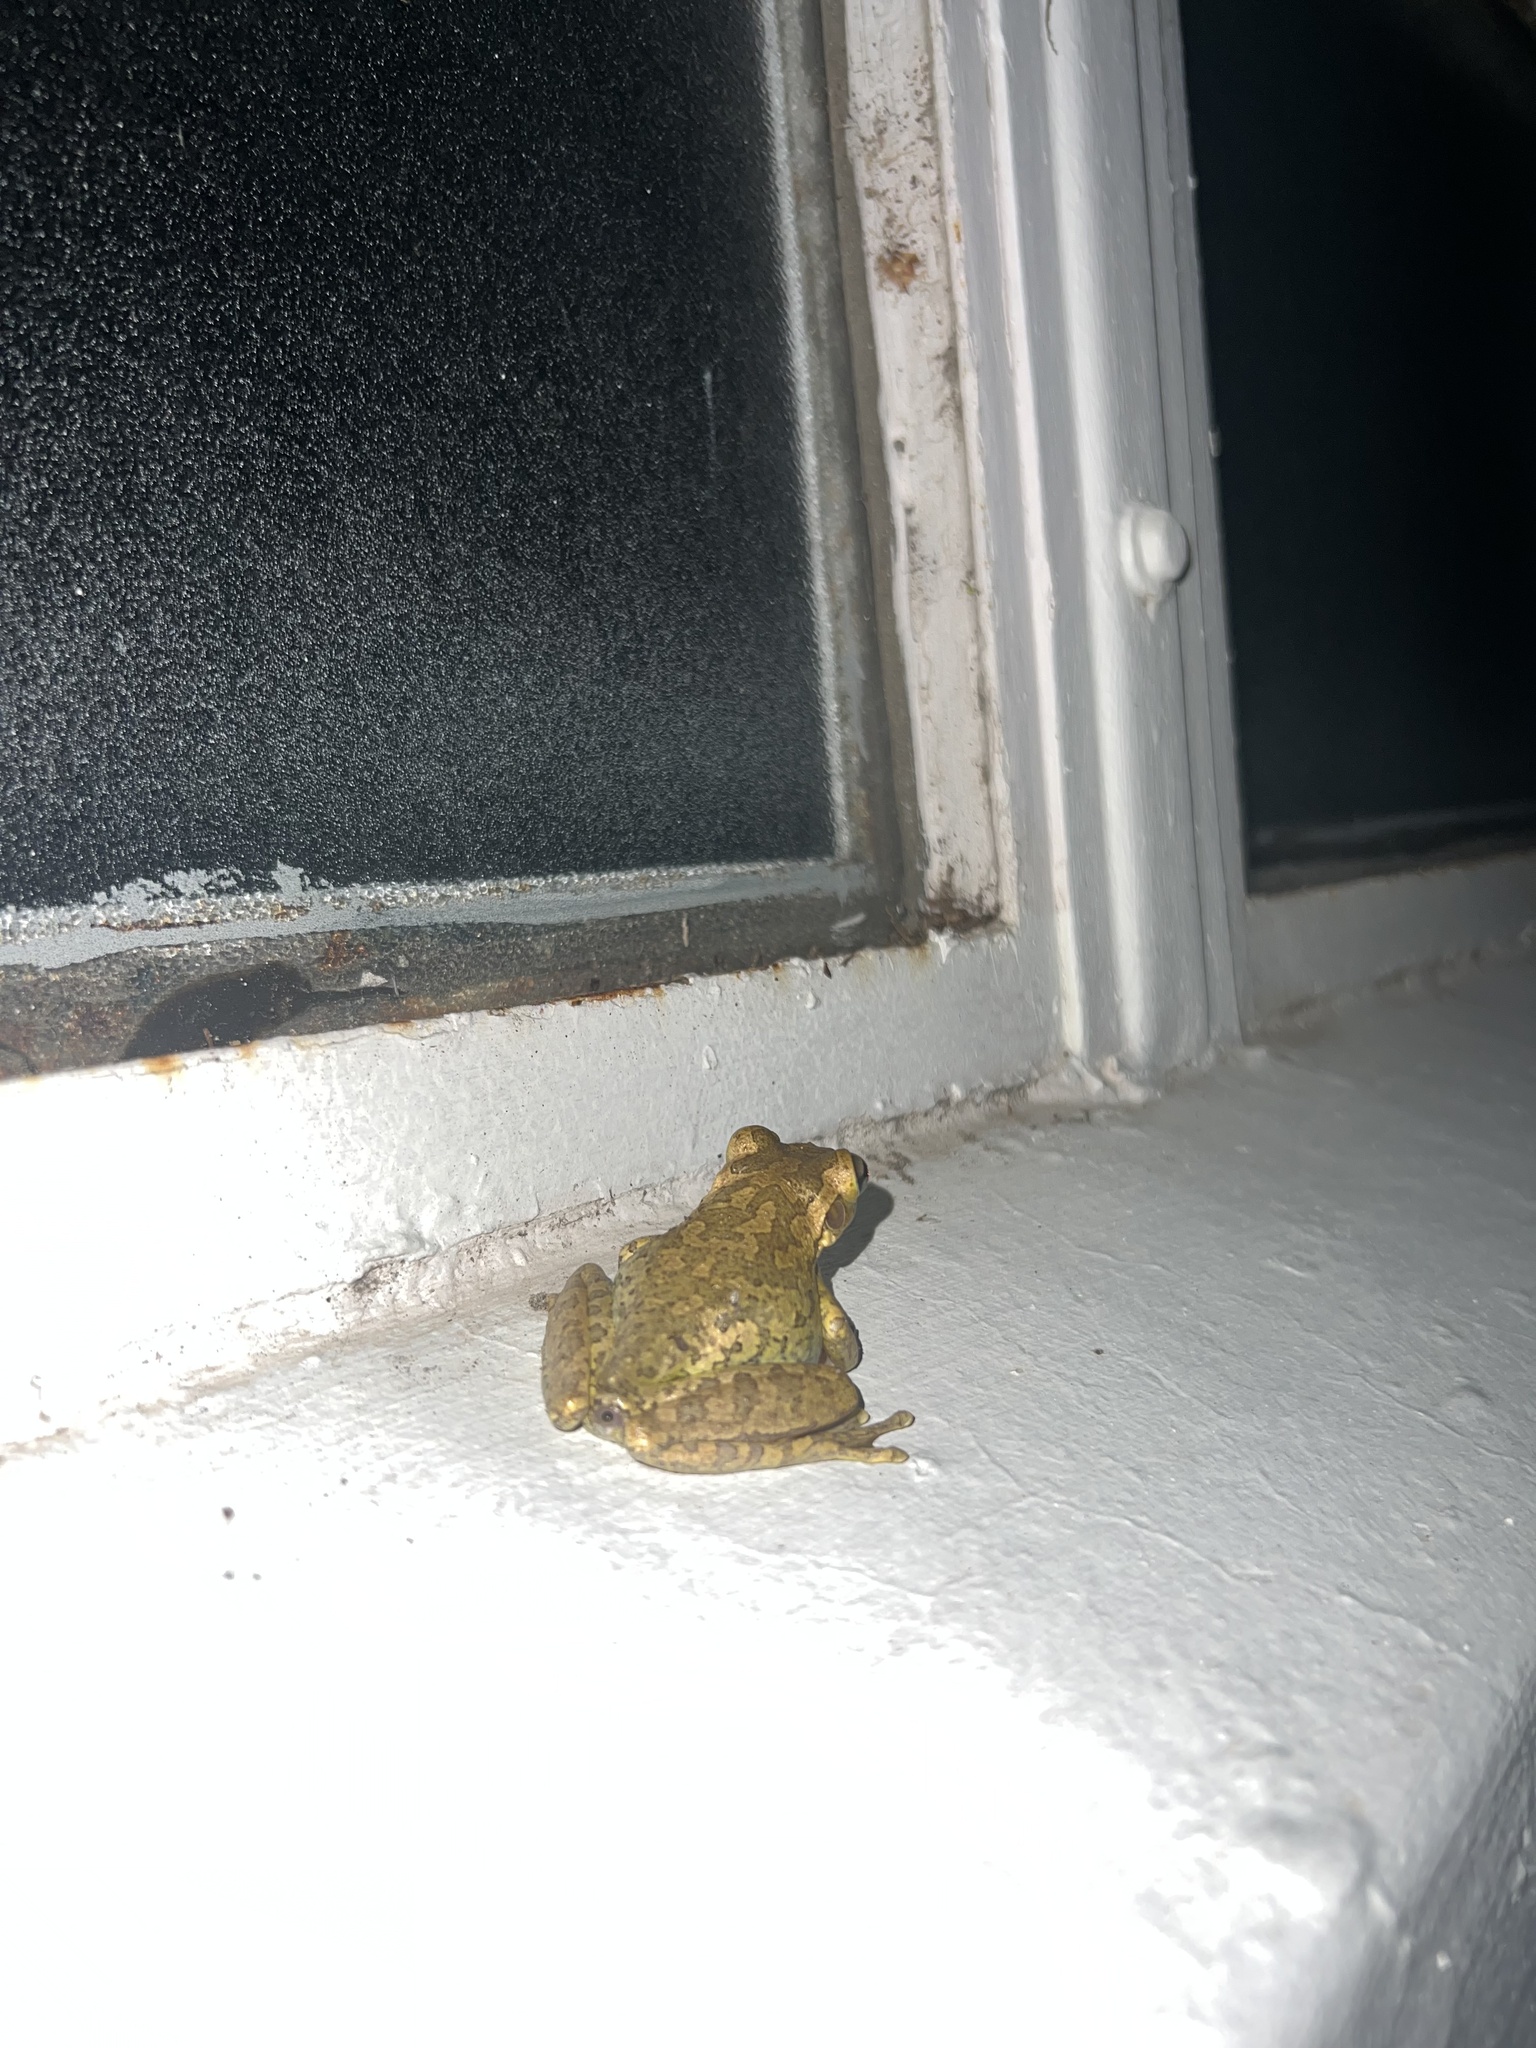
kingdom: Animalia
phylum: Chordata
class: Amphibia
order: Anura
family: Hylidae
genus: Osteopilus
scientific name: Osteopilus septentrionalis
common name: Cuban treefrog
